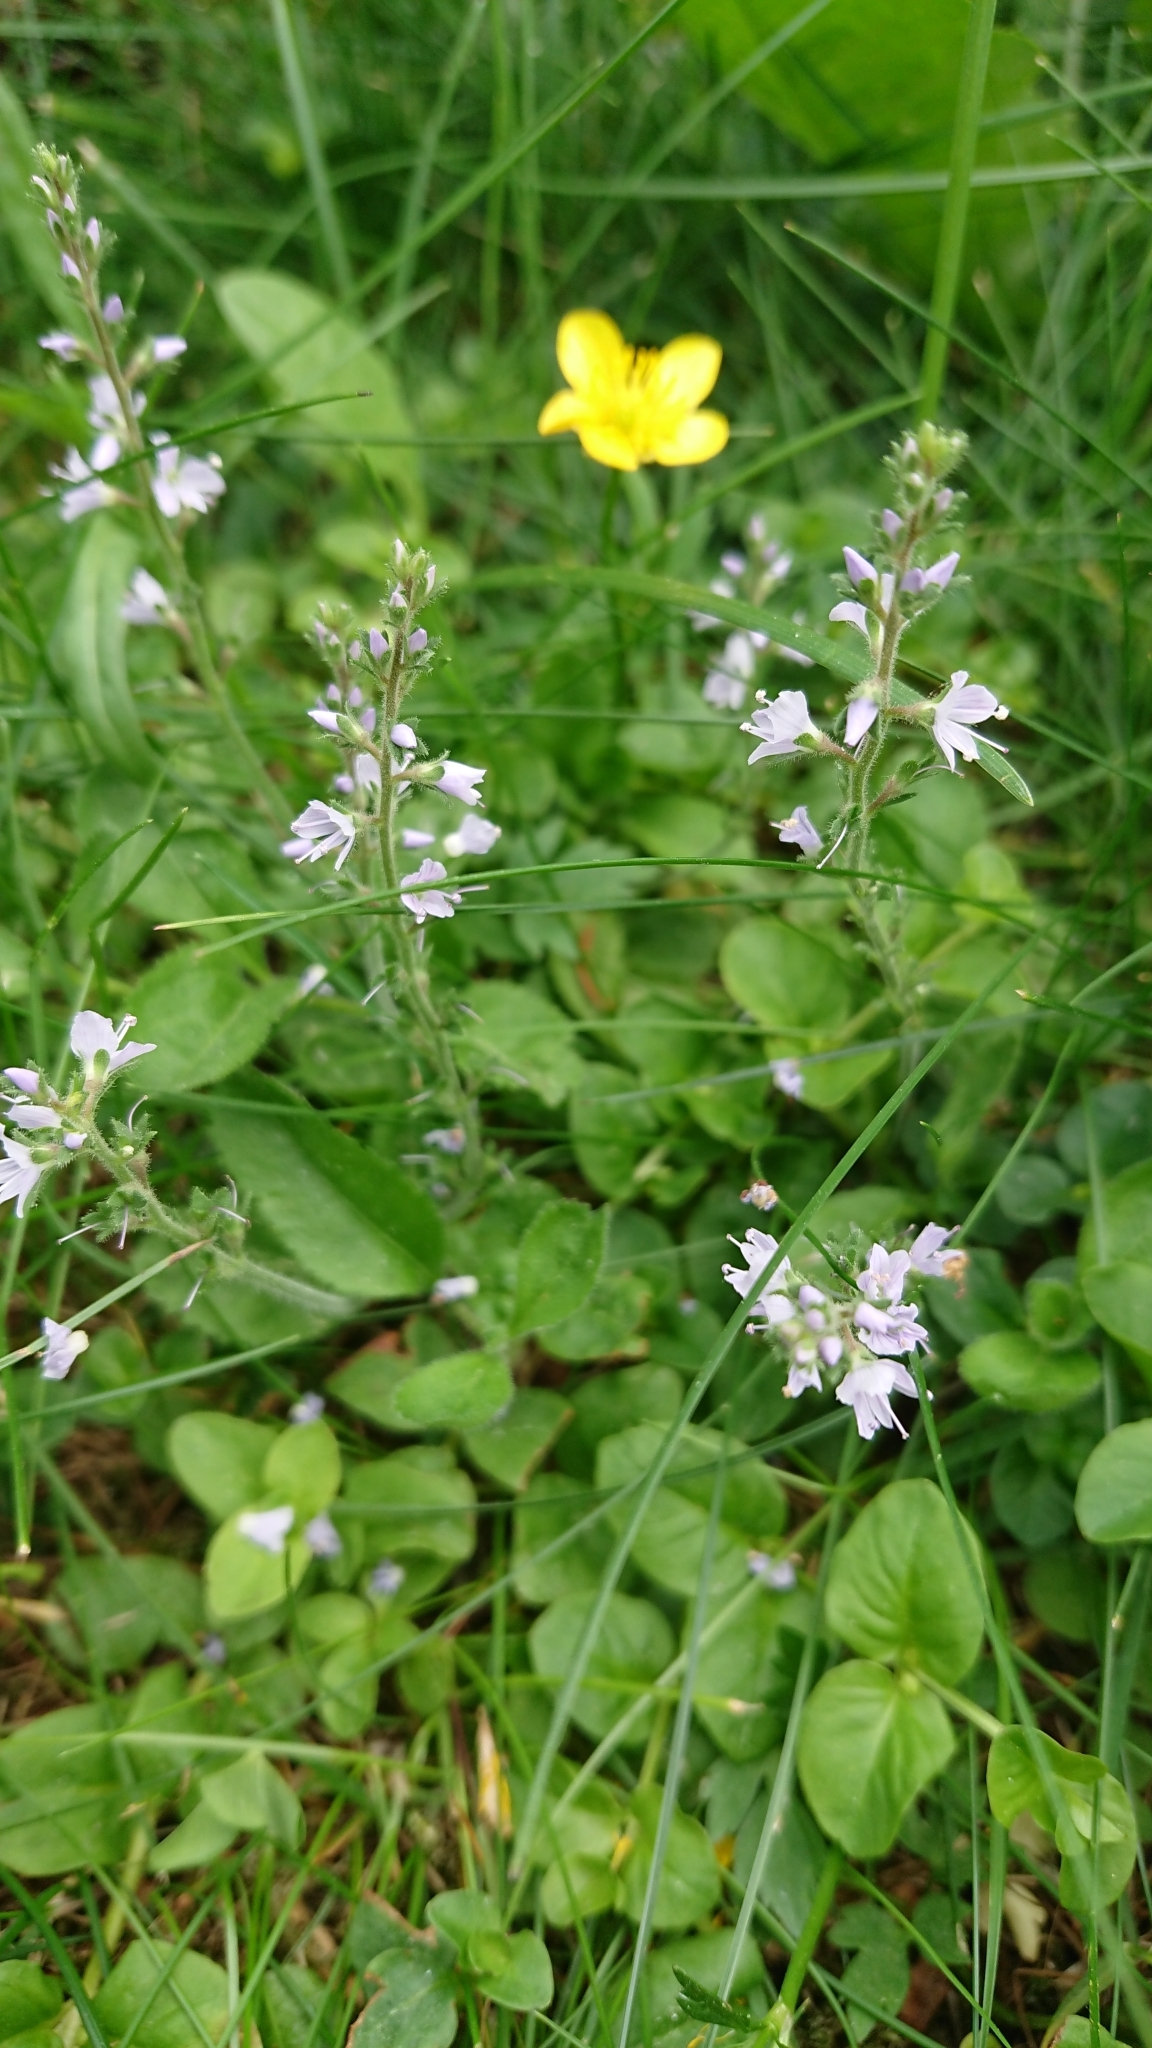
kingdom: Plantae
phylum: Tracheophyta
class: Magnoliopsida
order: Lamiales
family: Plantaginaceae
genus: Veronica
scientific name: Veronica officinalis
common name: Common speedwell
